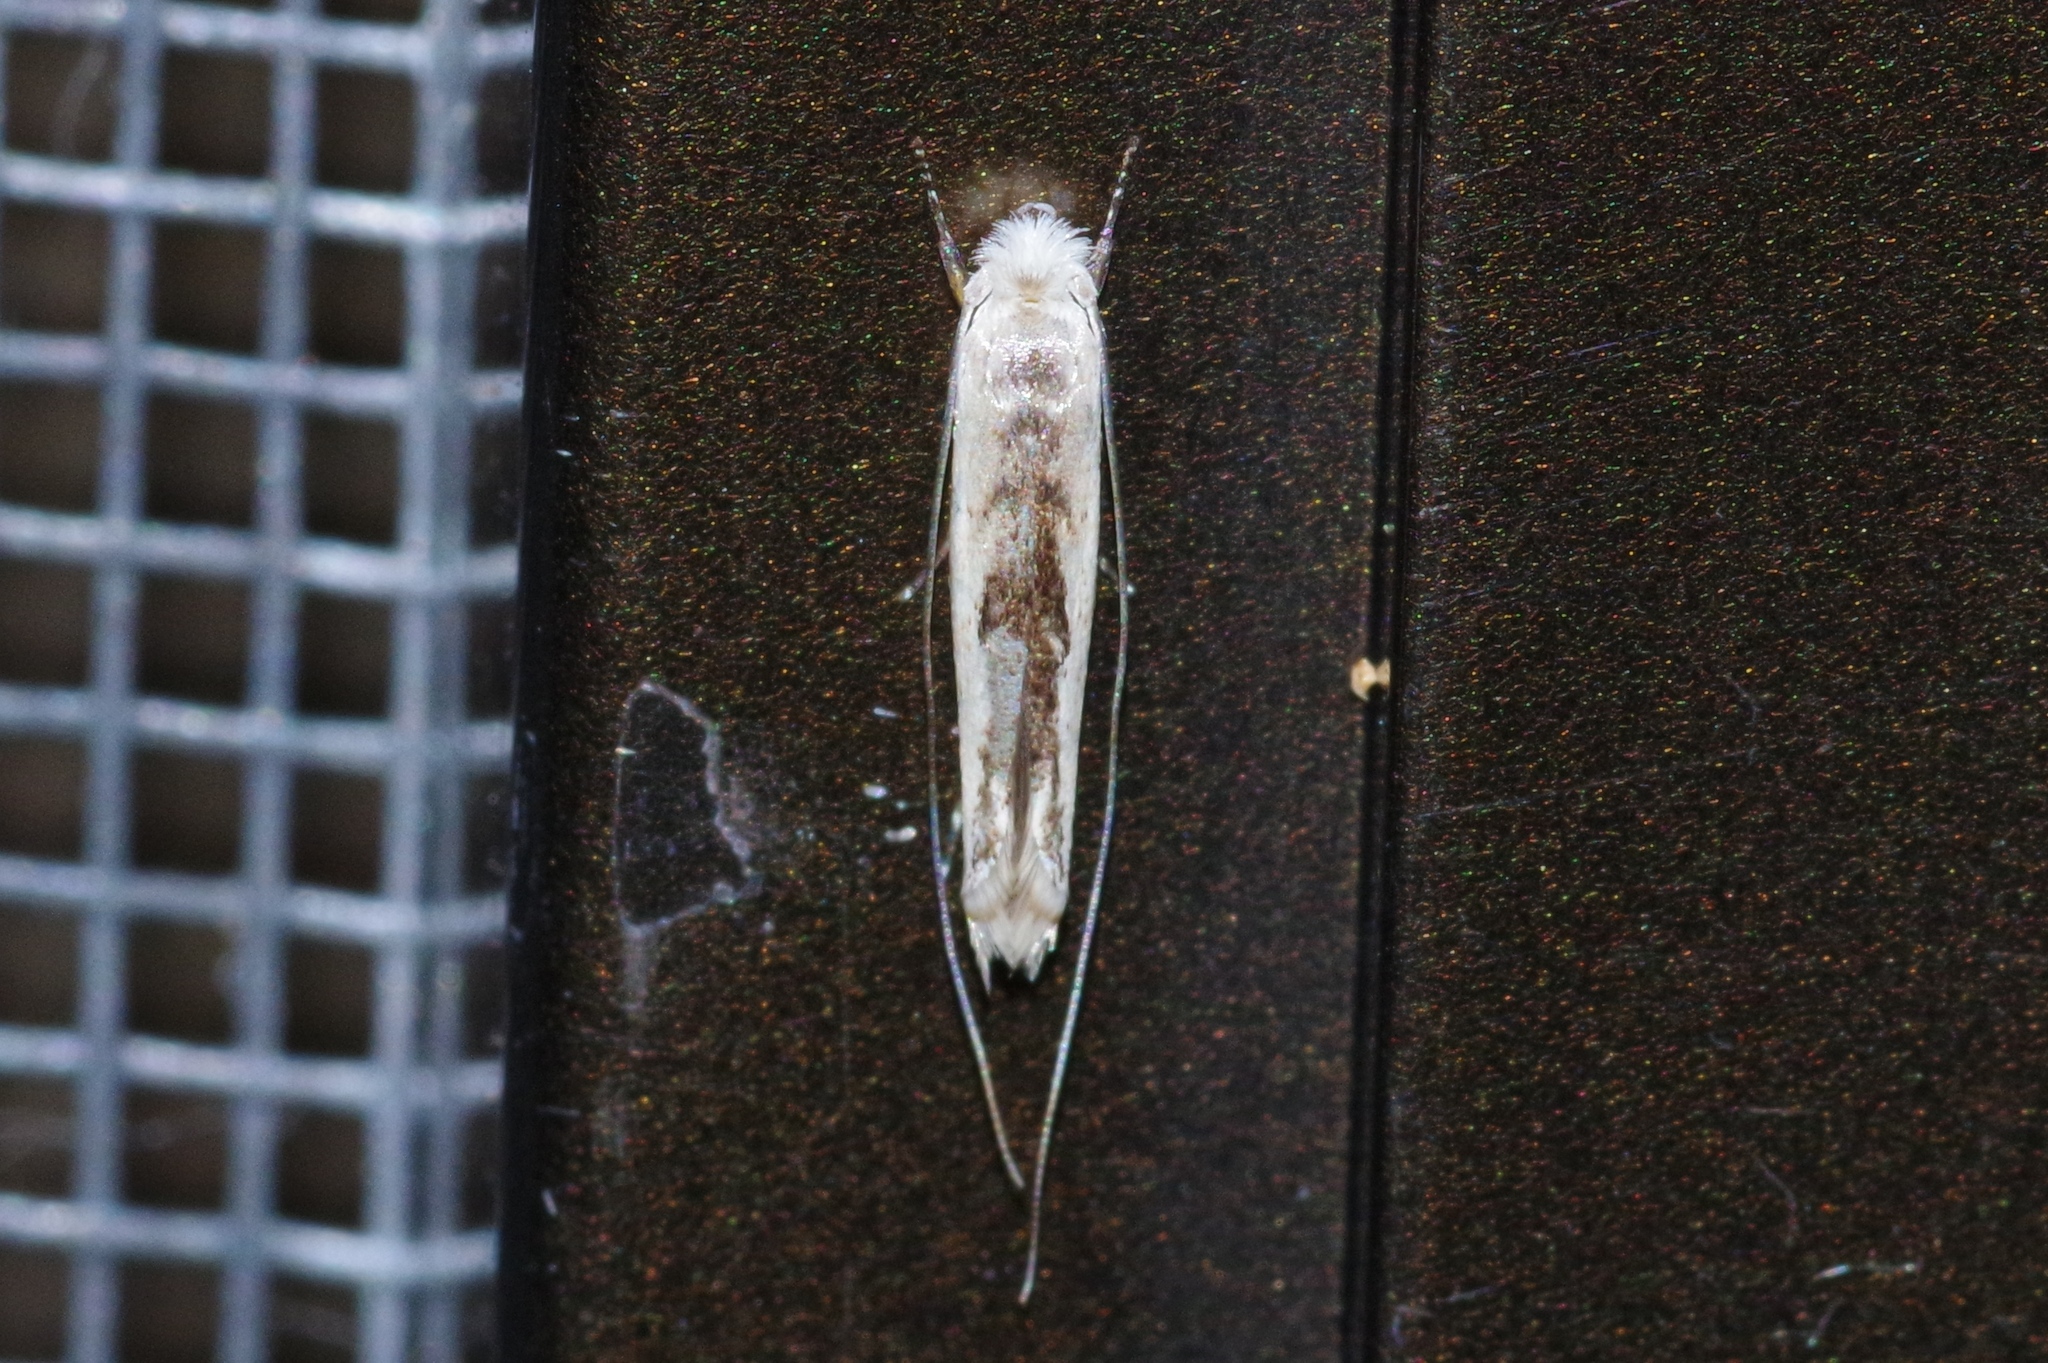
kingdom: Animalia
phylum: Arthropoda
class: Insecta
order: Lepidoptera
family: Roeslerstammiidae
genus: Agriothera
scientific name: Agriothera elaeocarpophaga
